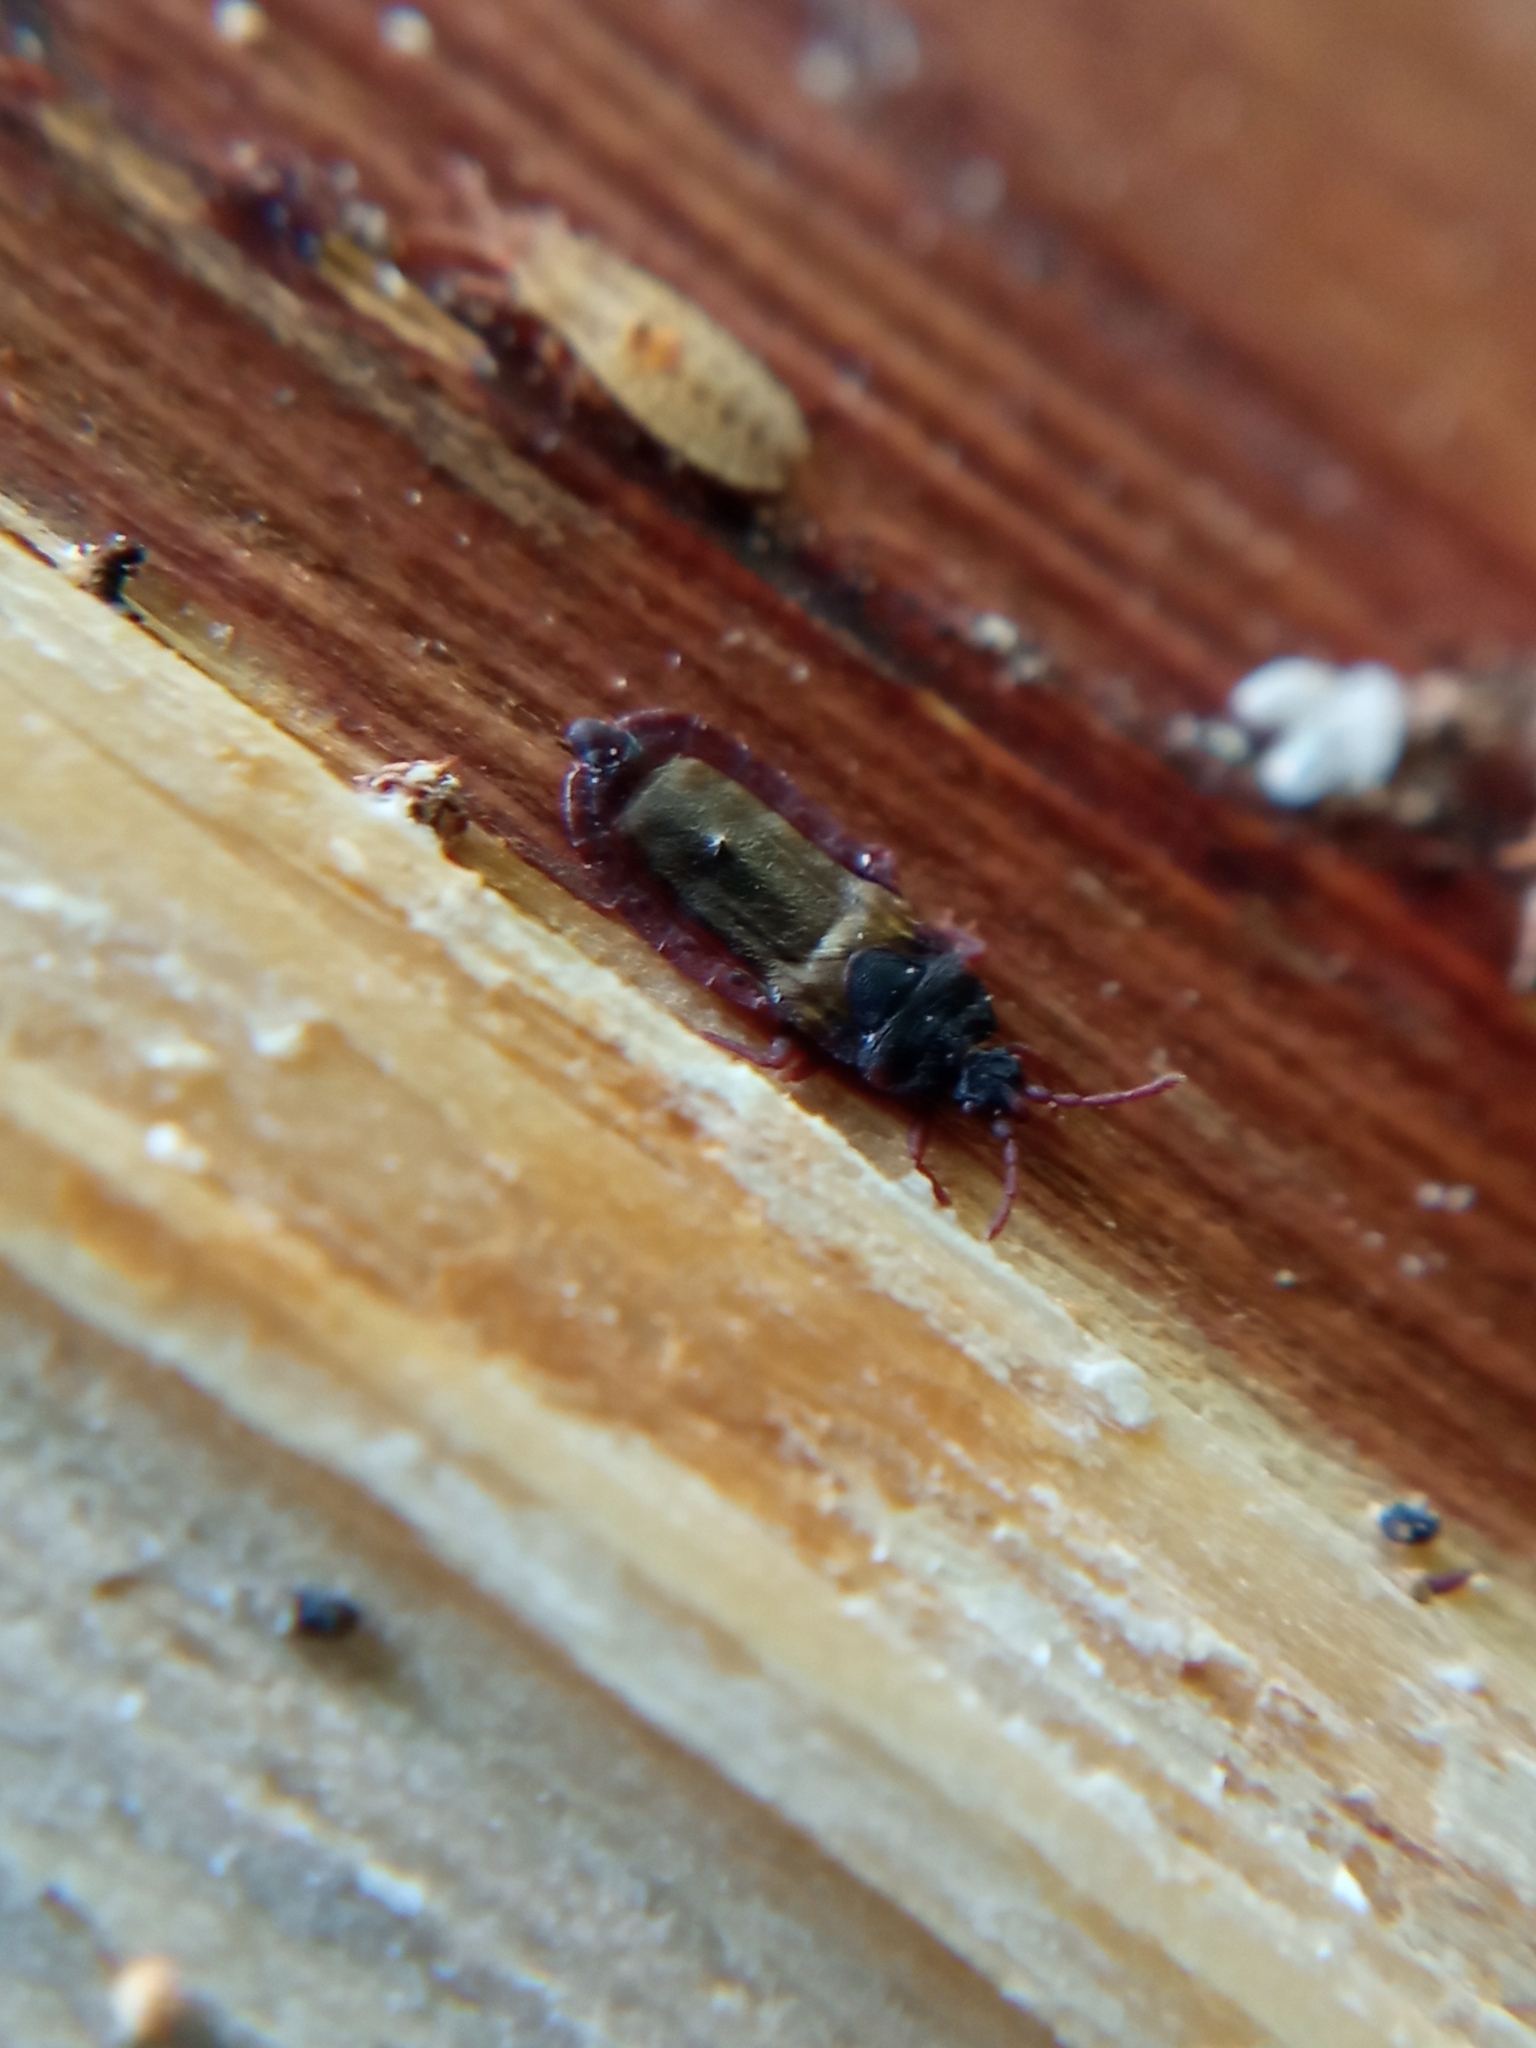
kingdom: Animalia
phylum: Arthropoda
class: Insecta
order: Hemiptera
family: Aradidae
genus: Aneurus
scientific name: Aneurus laevis
